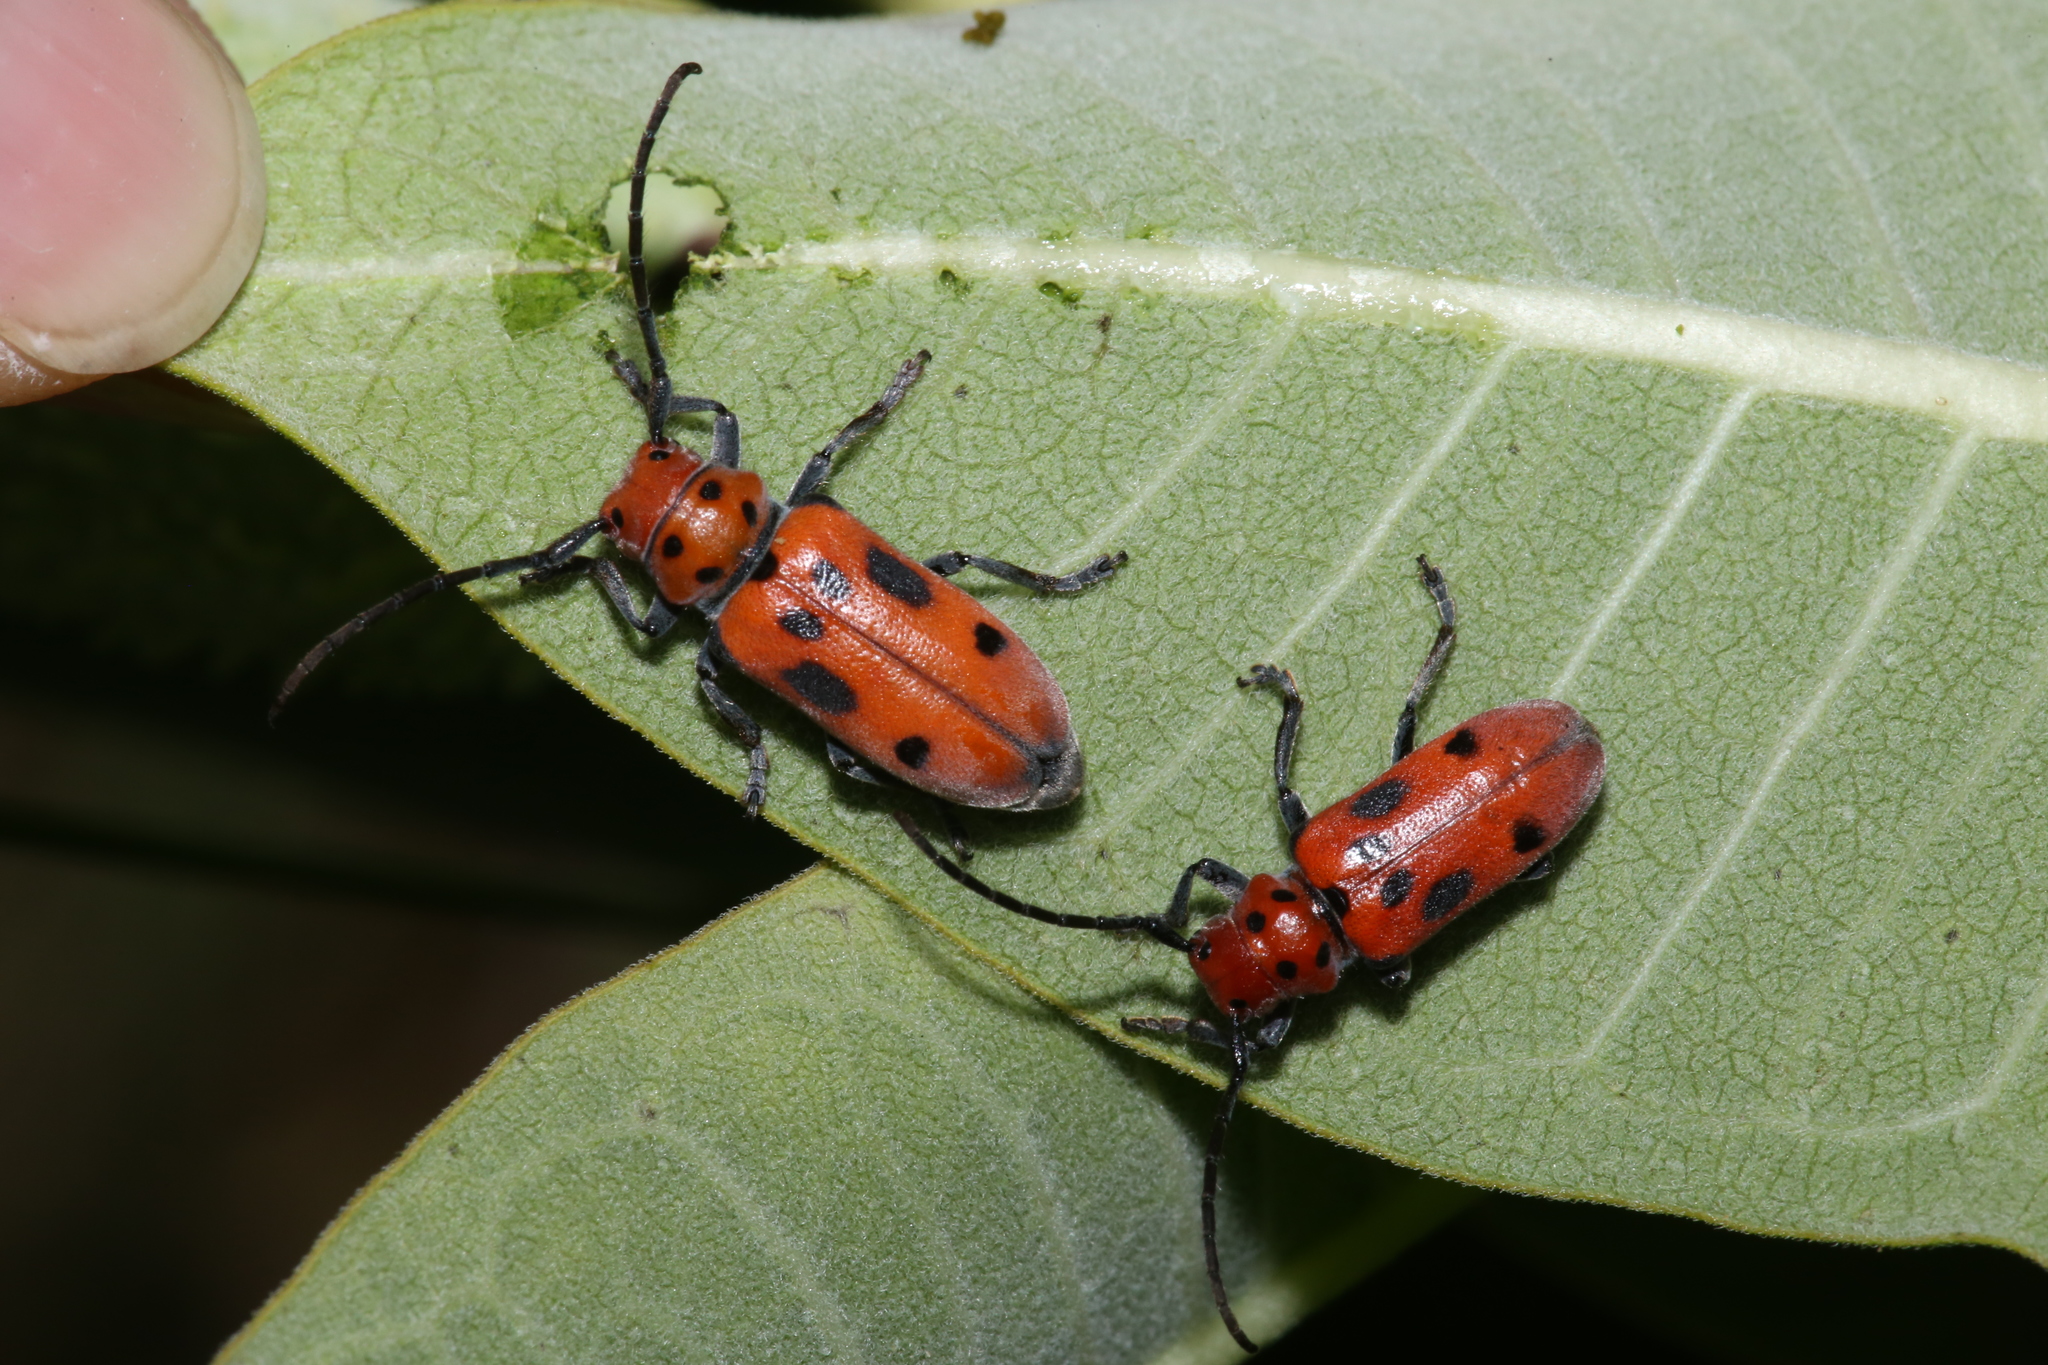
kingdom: Animalia
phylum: Arthropoda
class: Insecta
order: Coleoptera
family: Cerambycidae
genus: Tetraopes
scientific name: Tetraopes tetrophthalmus
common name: Red milkweed beetle
